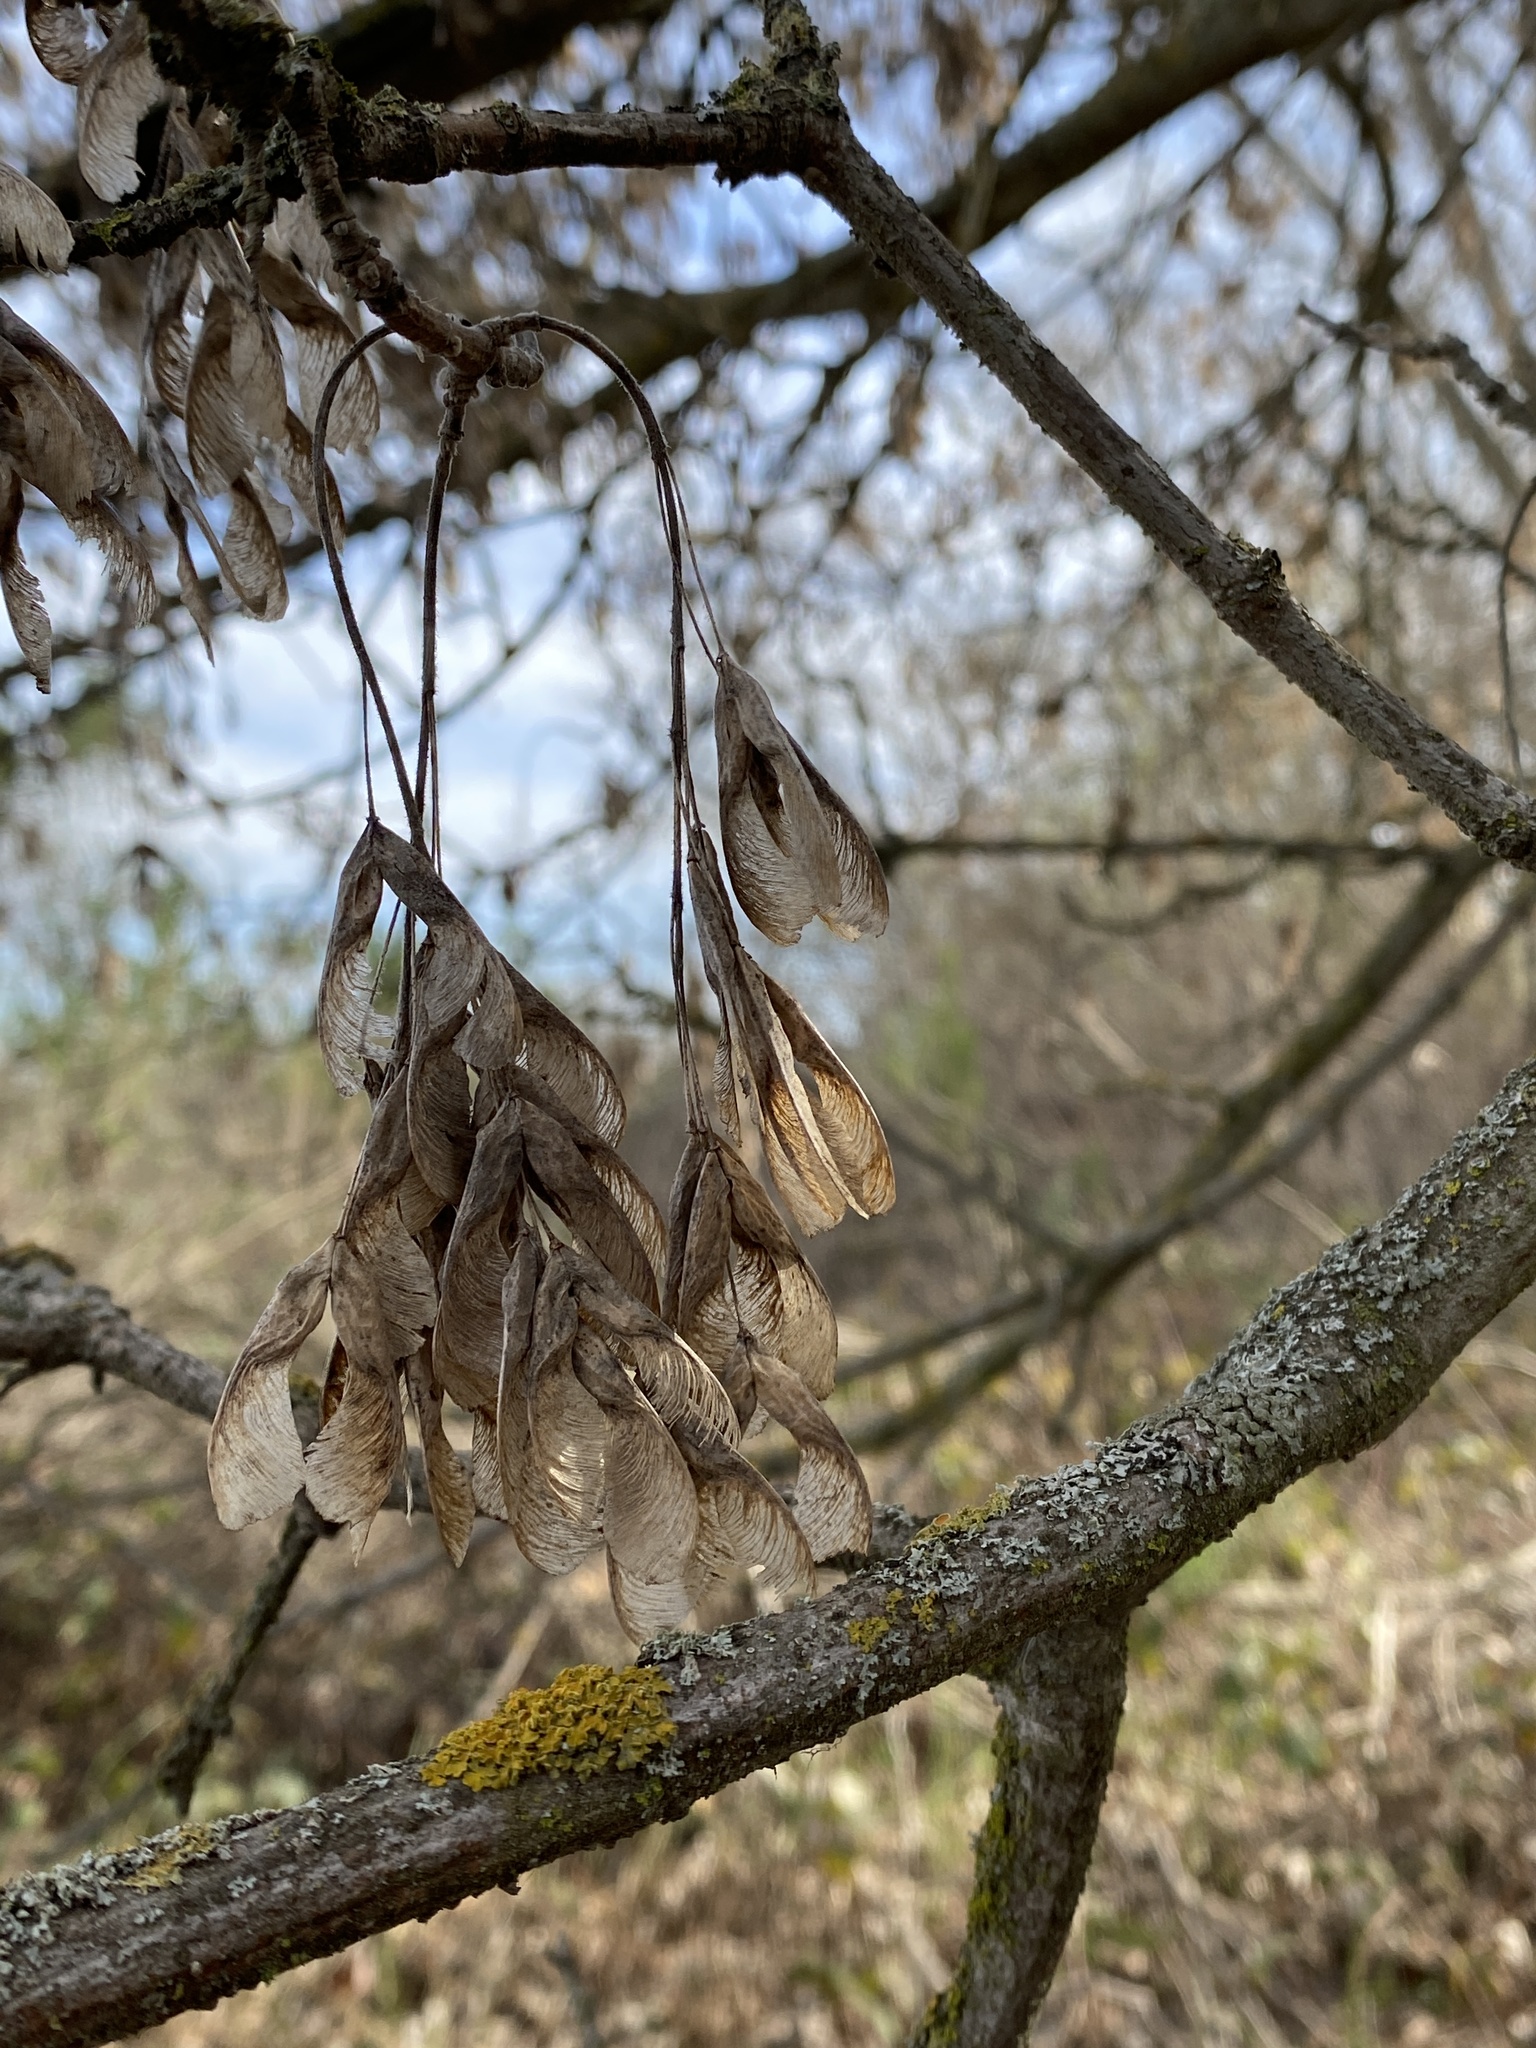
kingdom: Plantae
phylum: Tracheophyta
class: Magnoliopsida
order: Sapindales
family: Sapindaceae
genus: Acer
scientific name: Acer negundo
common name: Ashleaf maple
